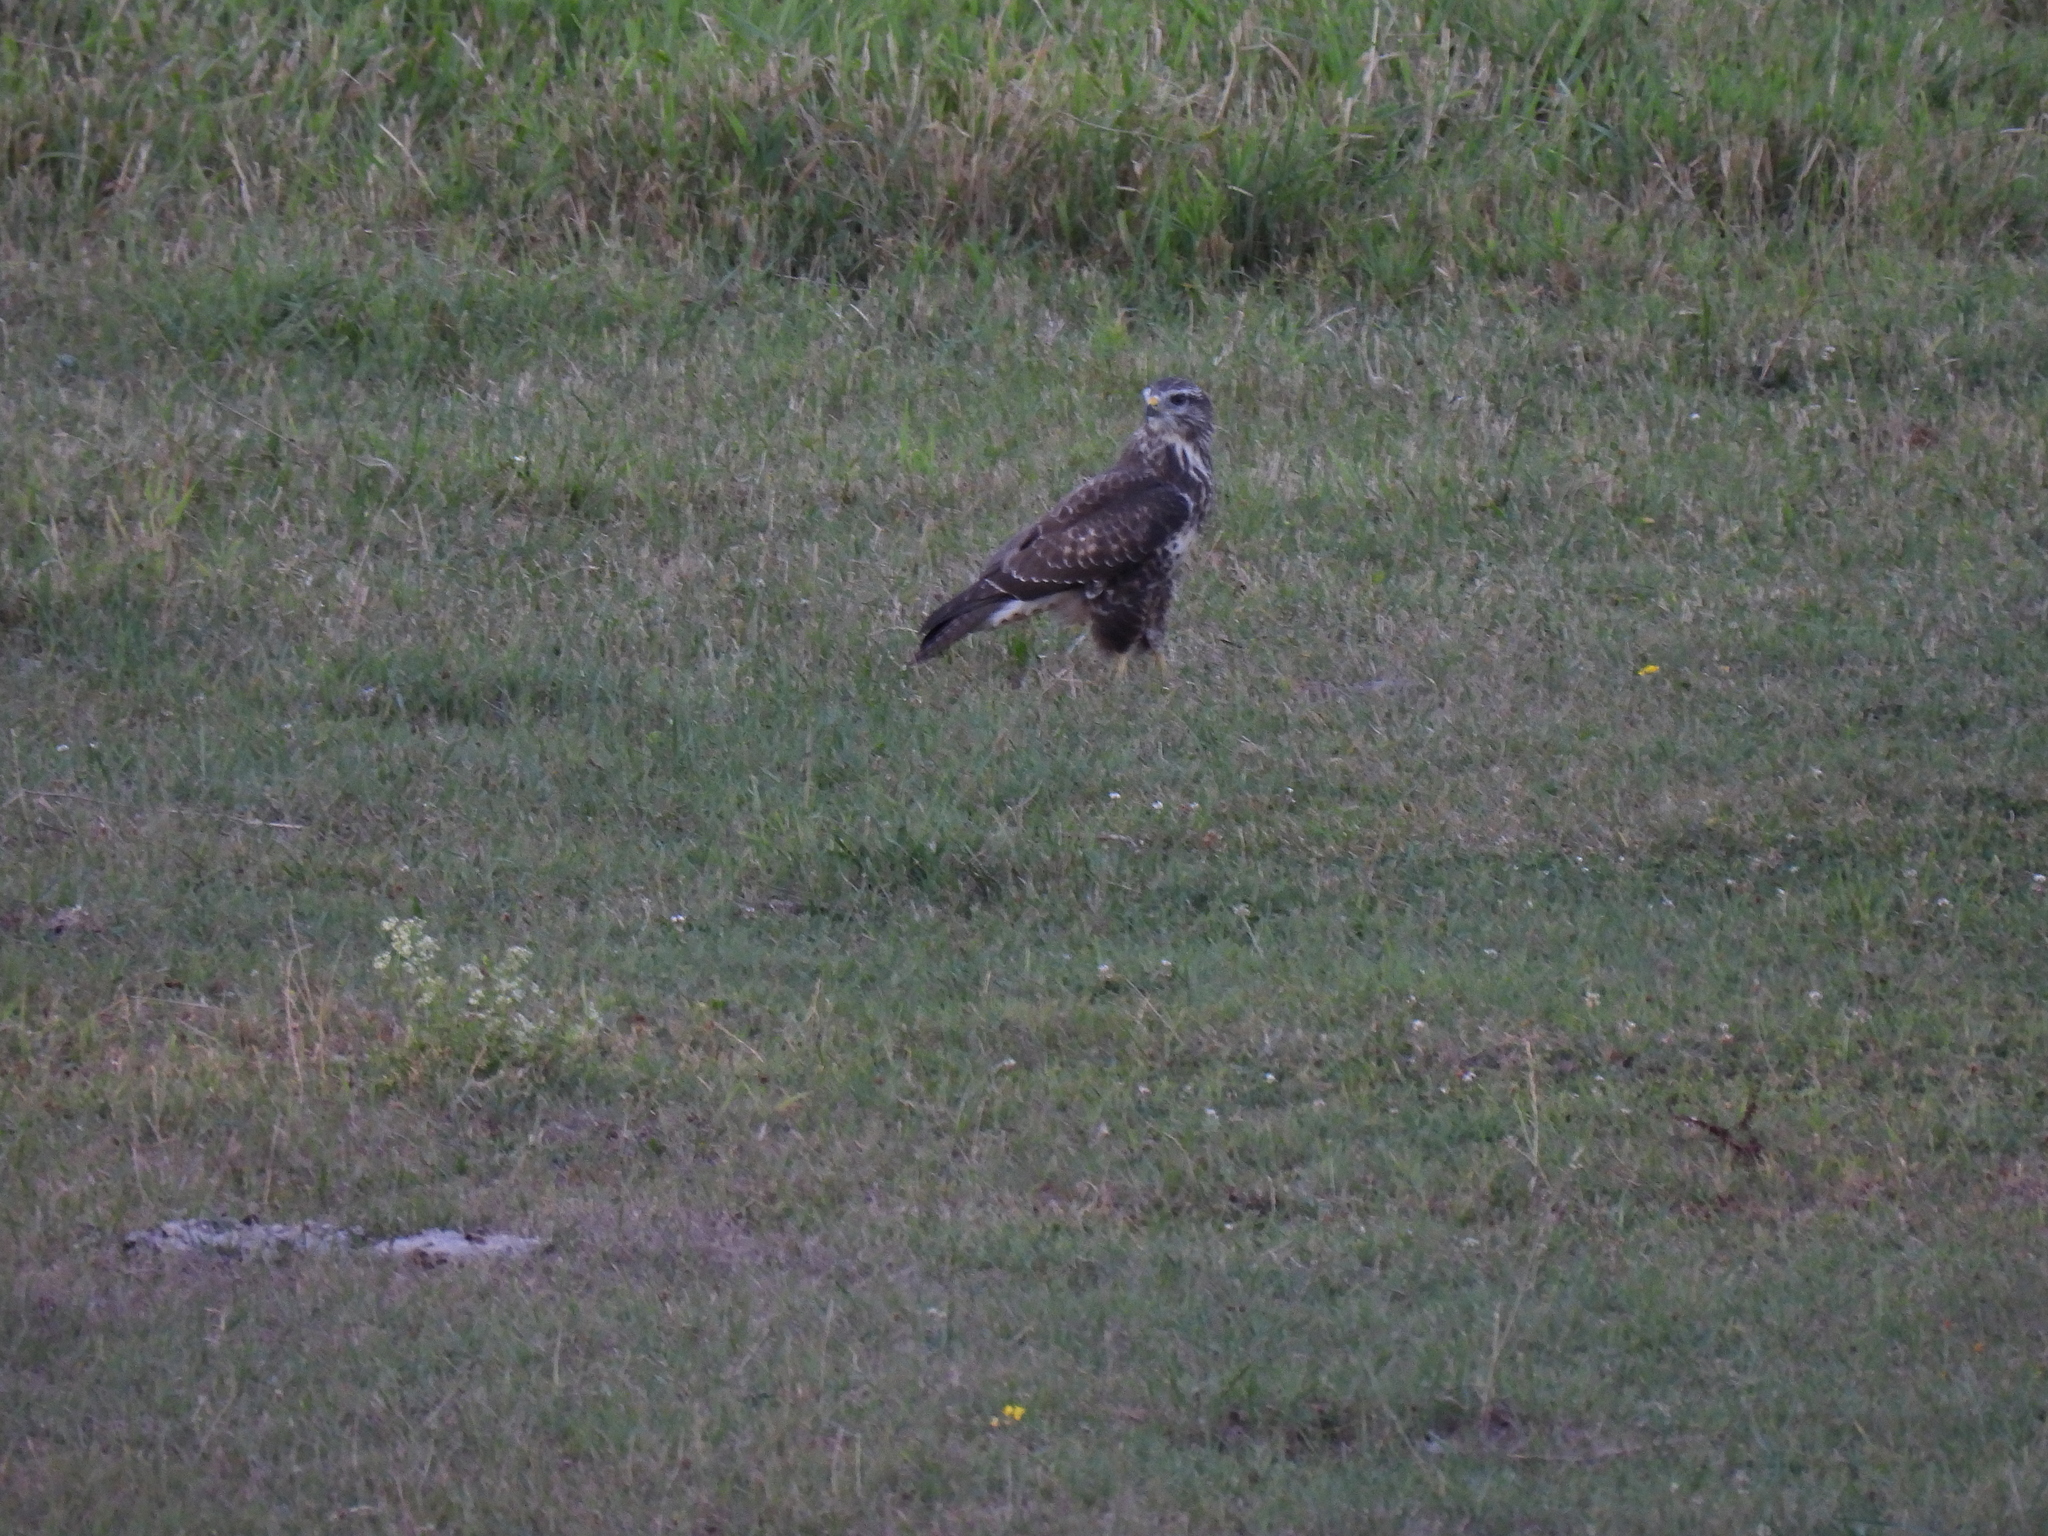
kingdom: Animalia
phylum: Chordata
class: Aves
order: Accipitriformes
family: Accipitridae
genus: Buteo
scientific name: Buteo buteo
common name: Common buzzard
